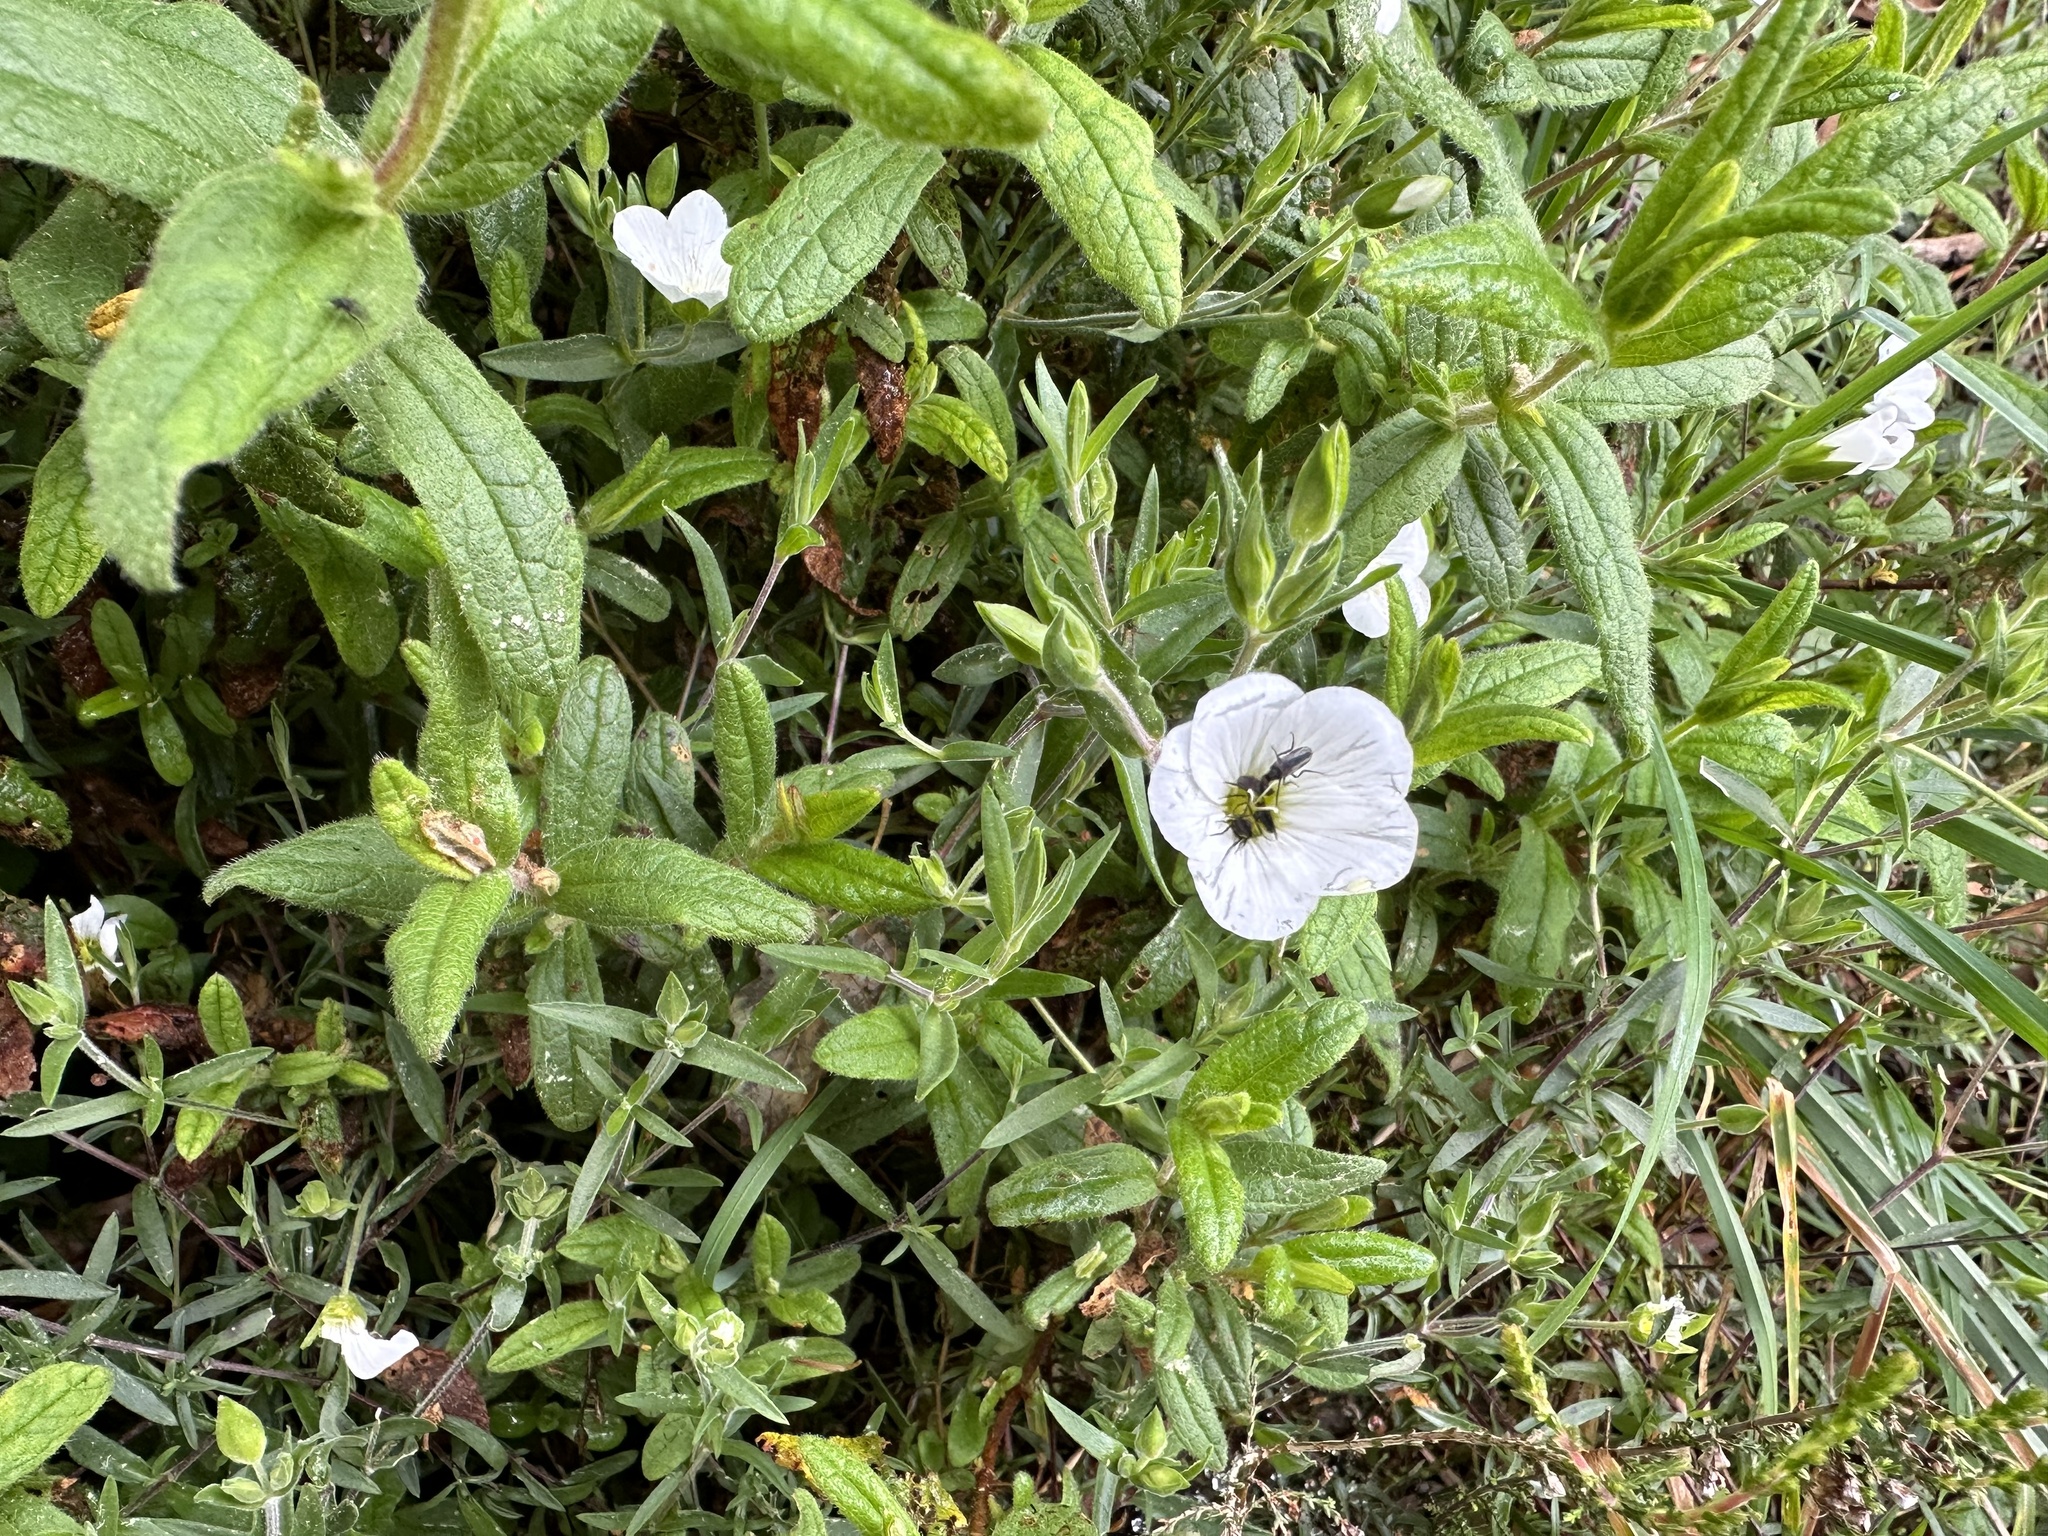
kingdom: Plantae
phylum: Tracheophyta
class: Magnoliopsida
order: Caryophyllales
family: Caryophyllaceae
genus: Arenaria
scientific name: Arenaria montana
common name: Mountain sandwort
